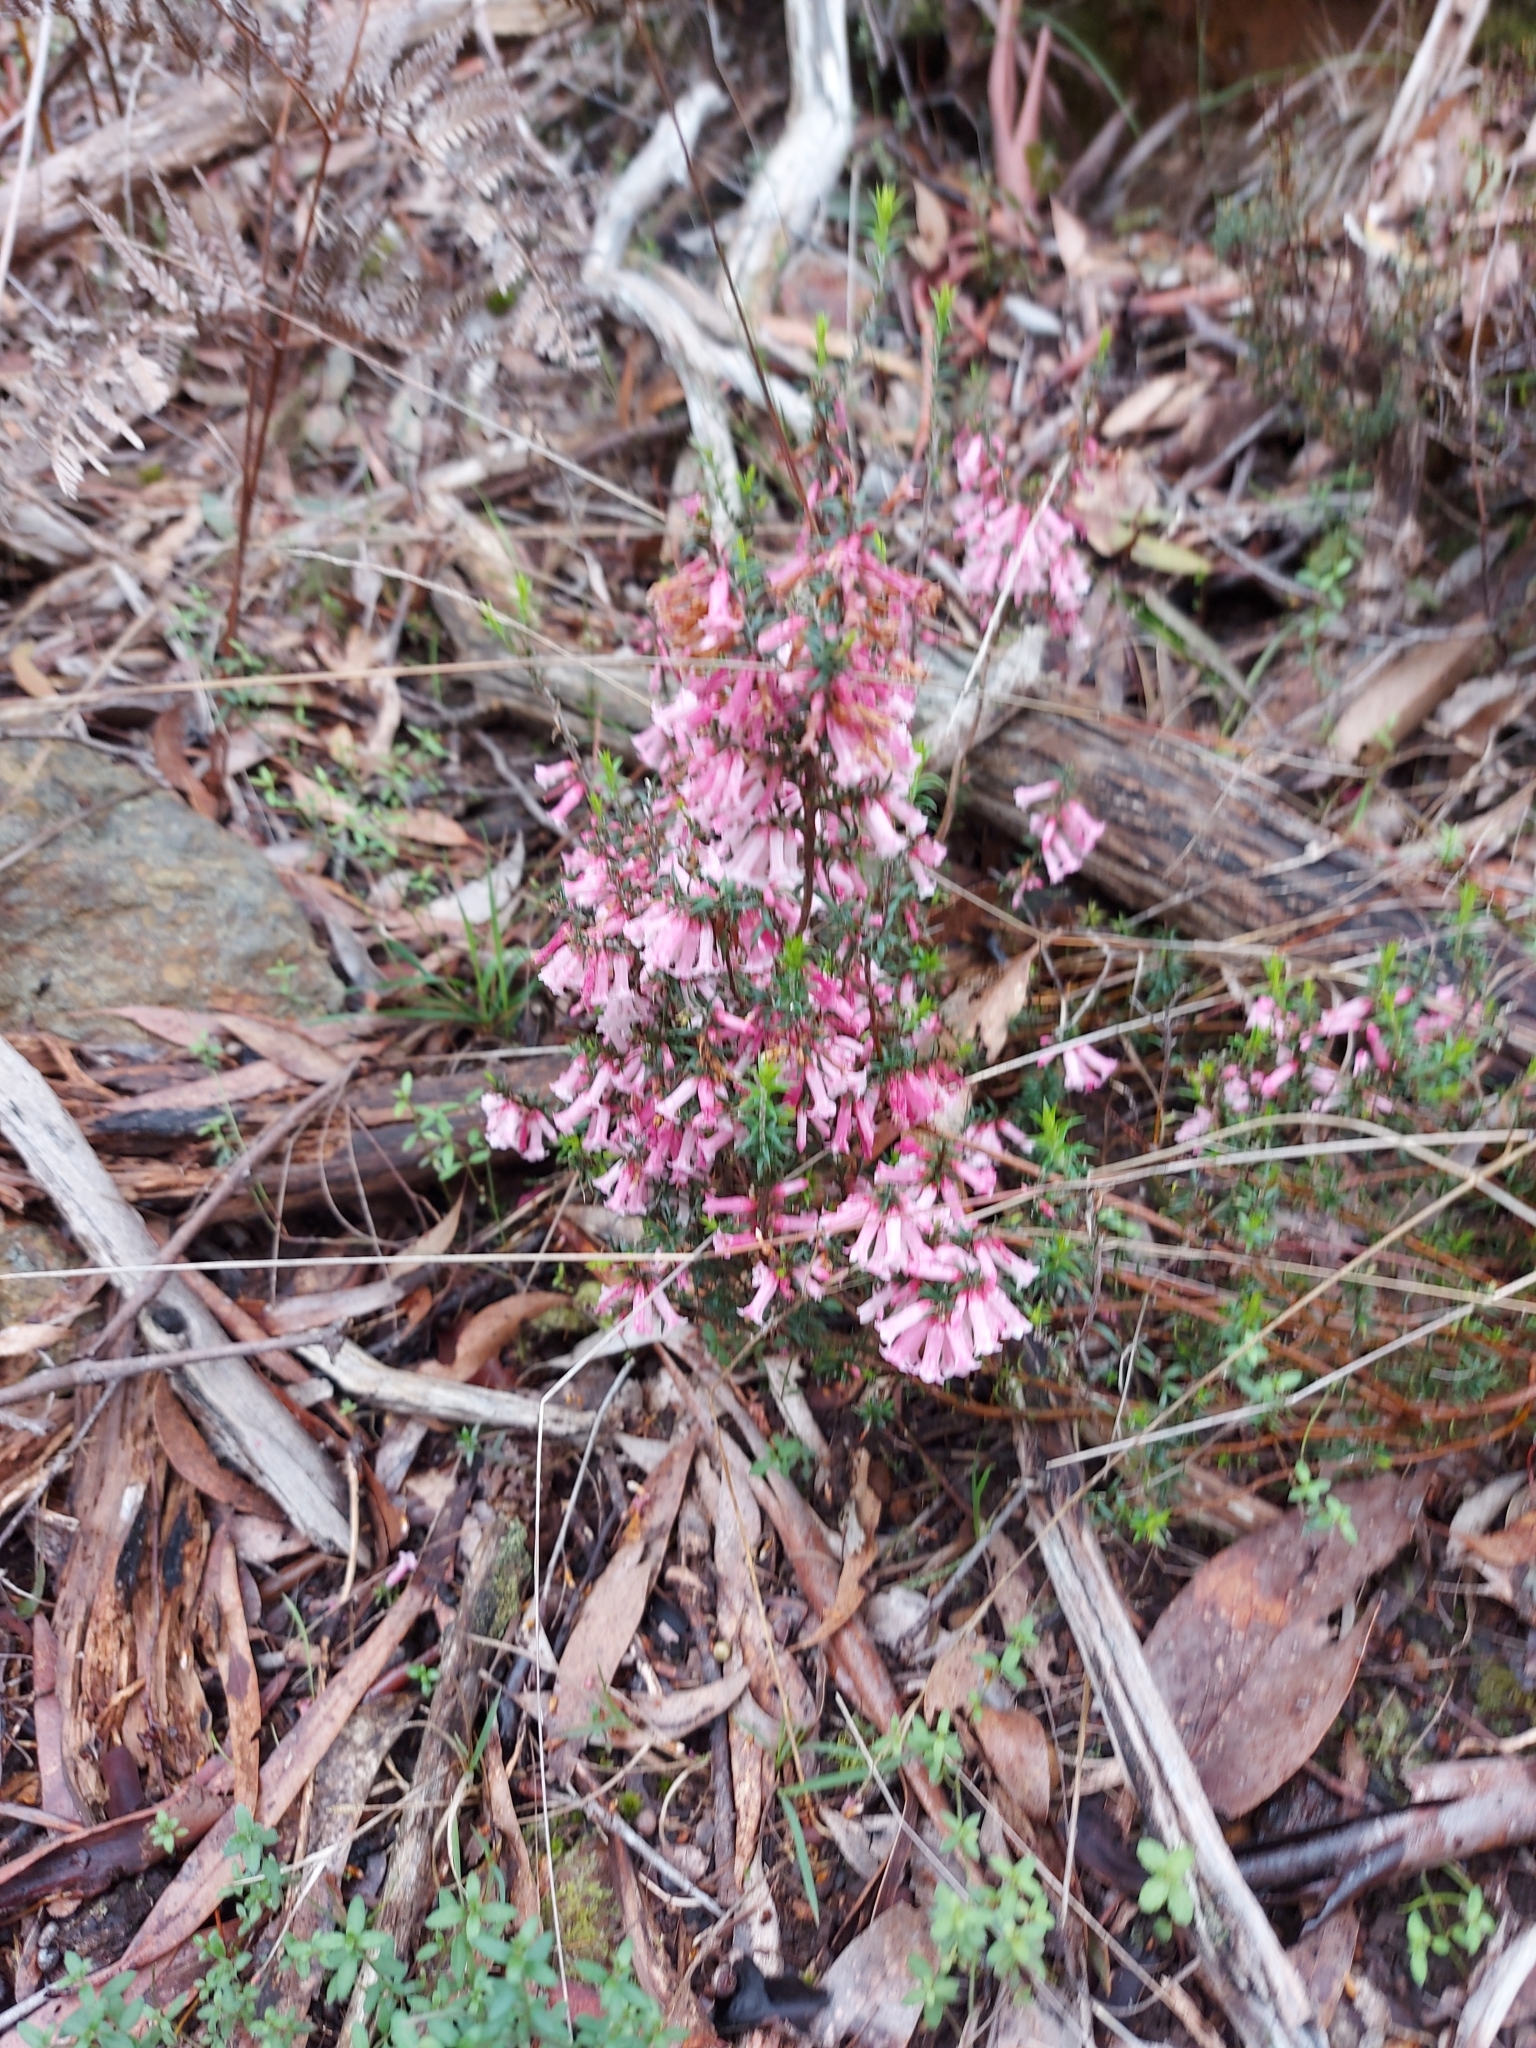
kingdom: Plantae
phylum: Tracheophyta
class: Magnoliopsida
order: Ericales
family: Ericaceae
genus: Epacris
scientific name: Epacris impressa
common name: Common-heath
